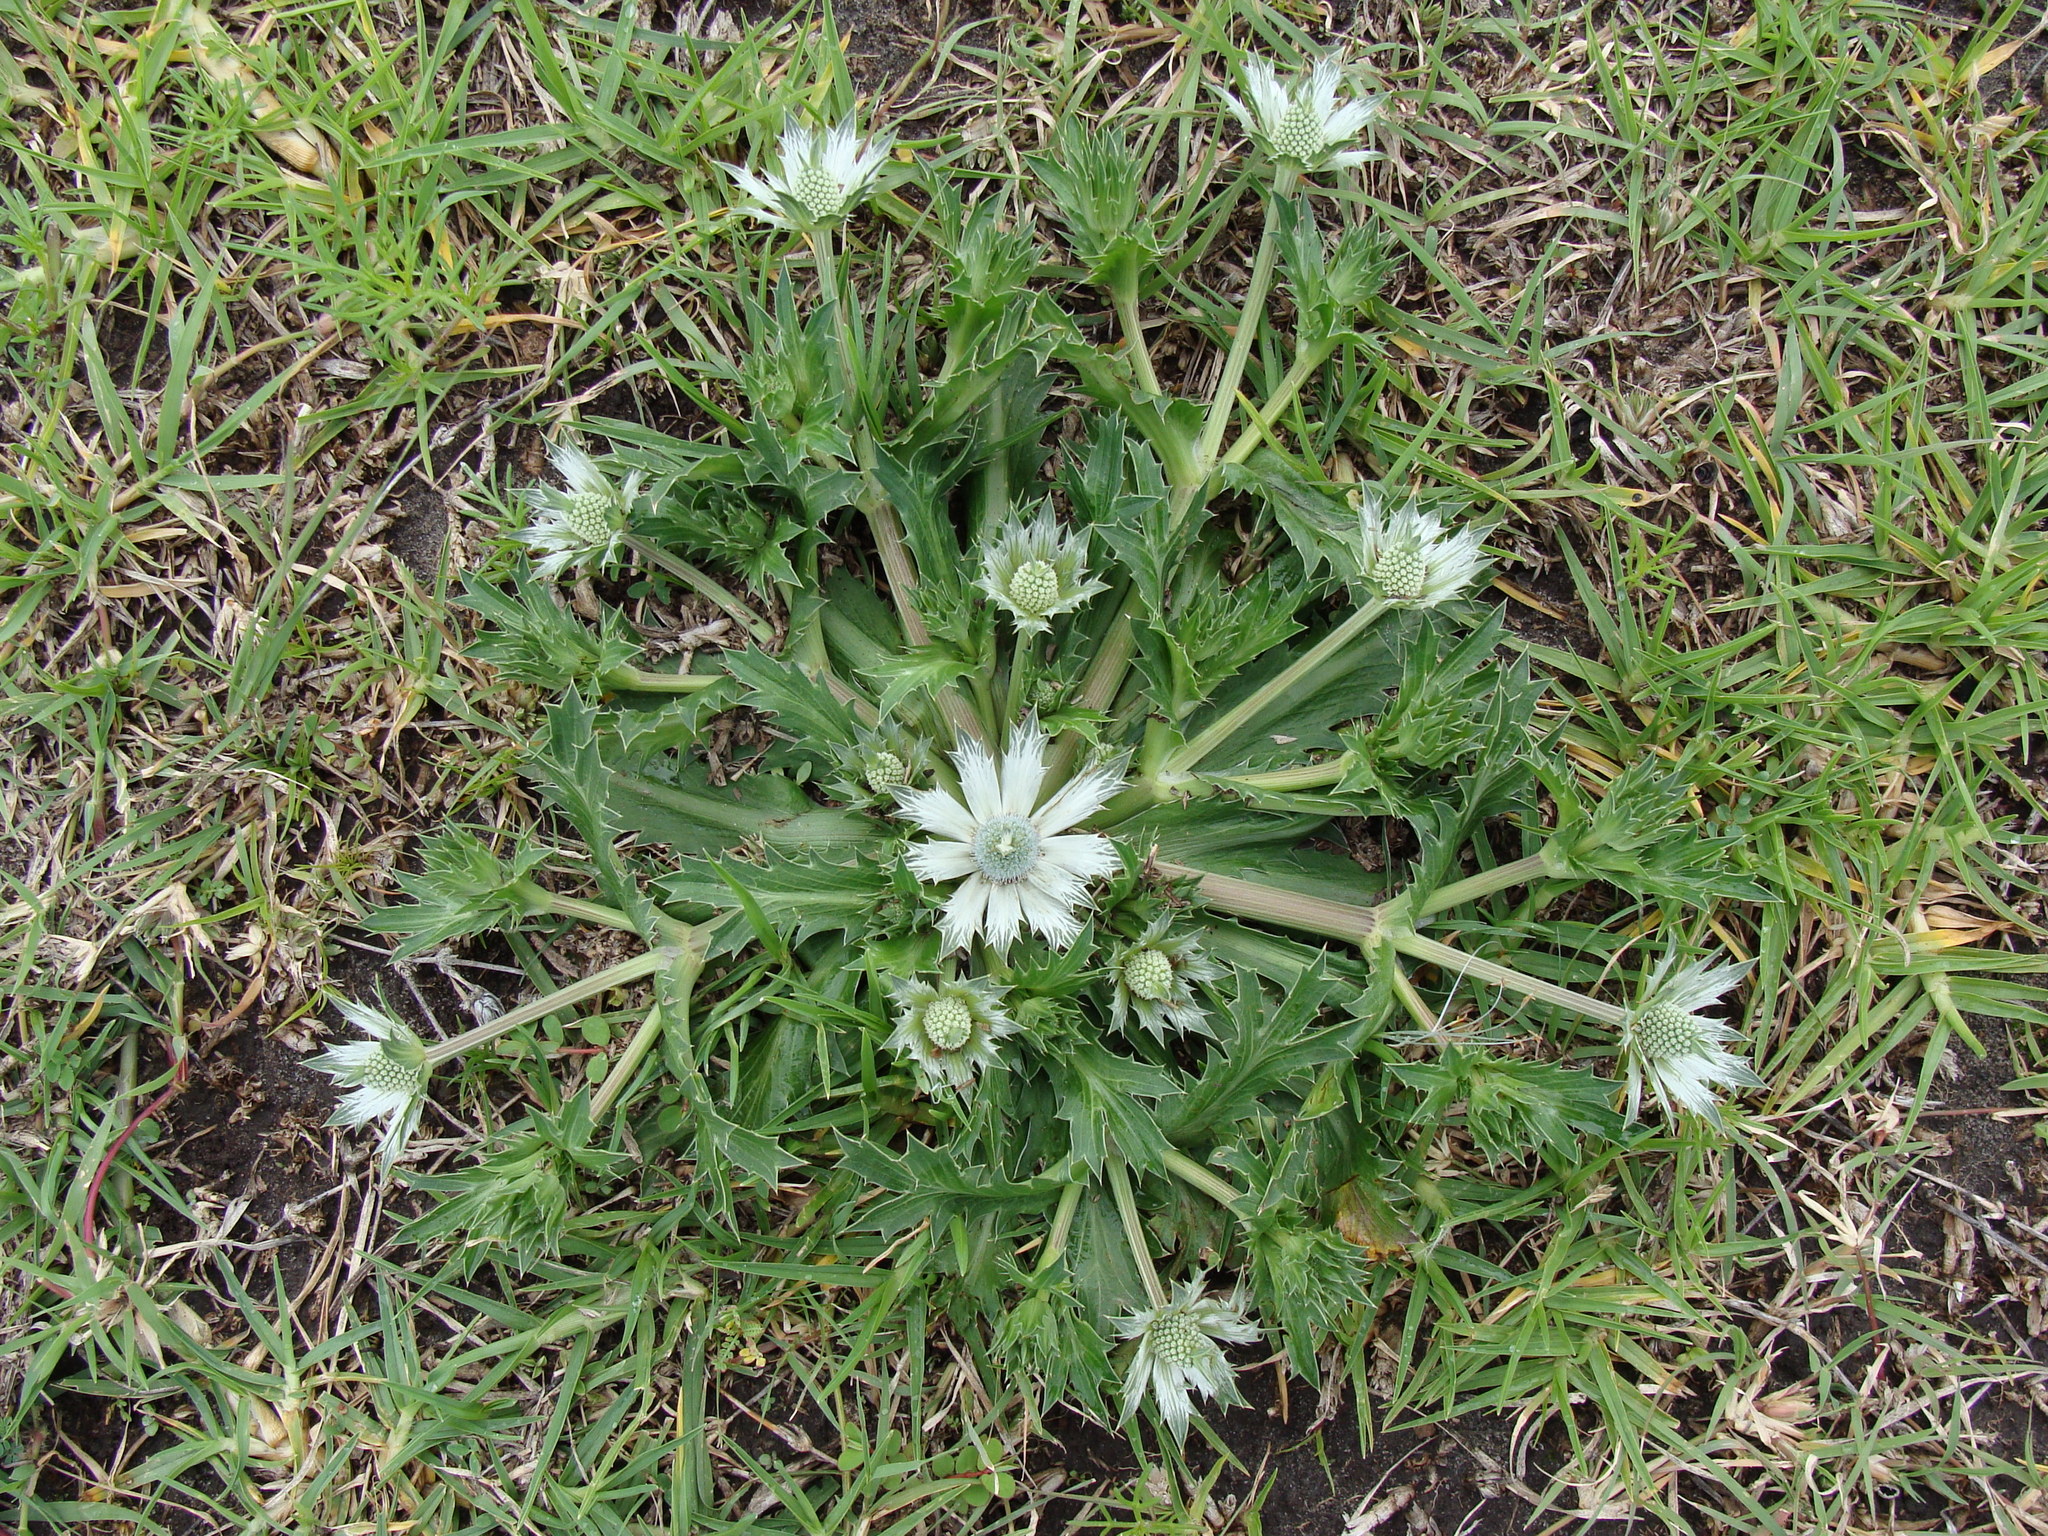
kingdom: Plantae
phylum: Tracheophyta
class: Magnoliopsida
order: Apiales
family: Apiaceae
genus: Eryngium
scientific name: Eryngium carlinae
